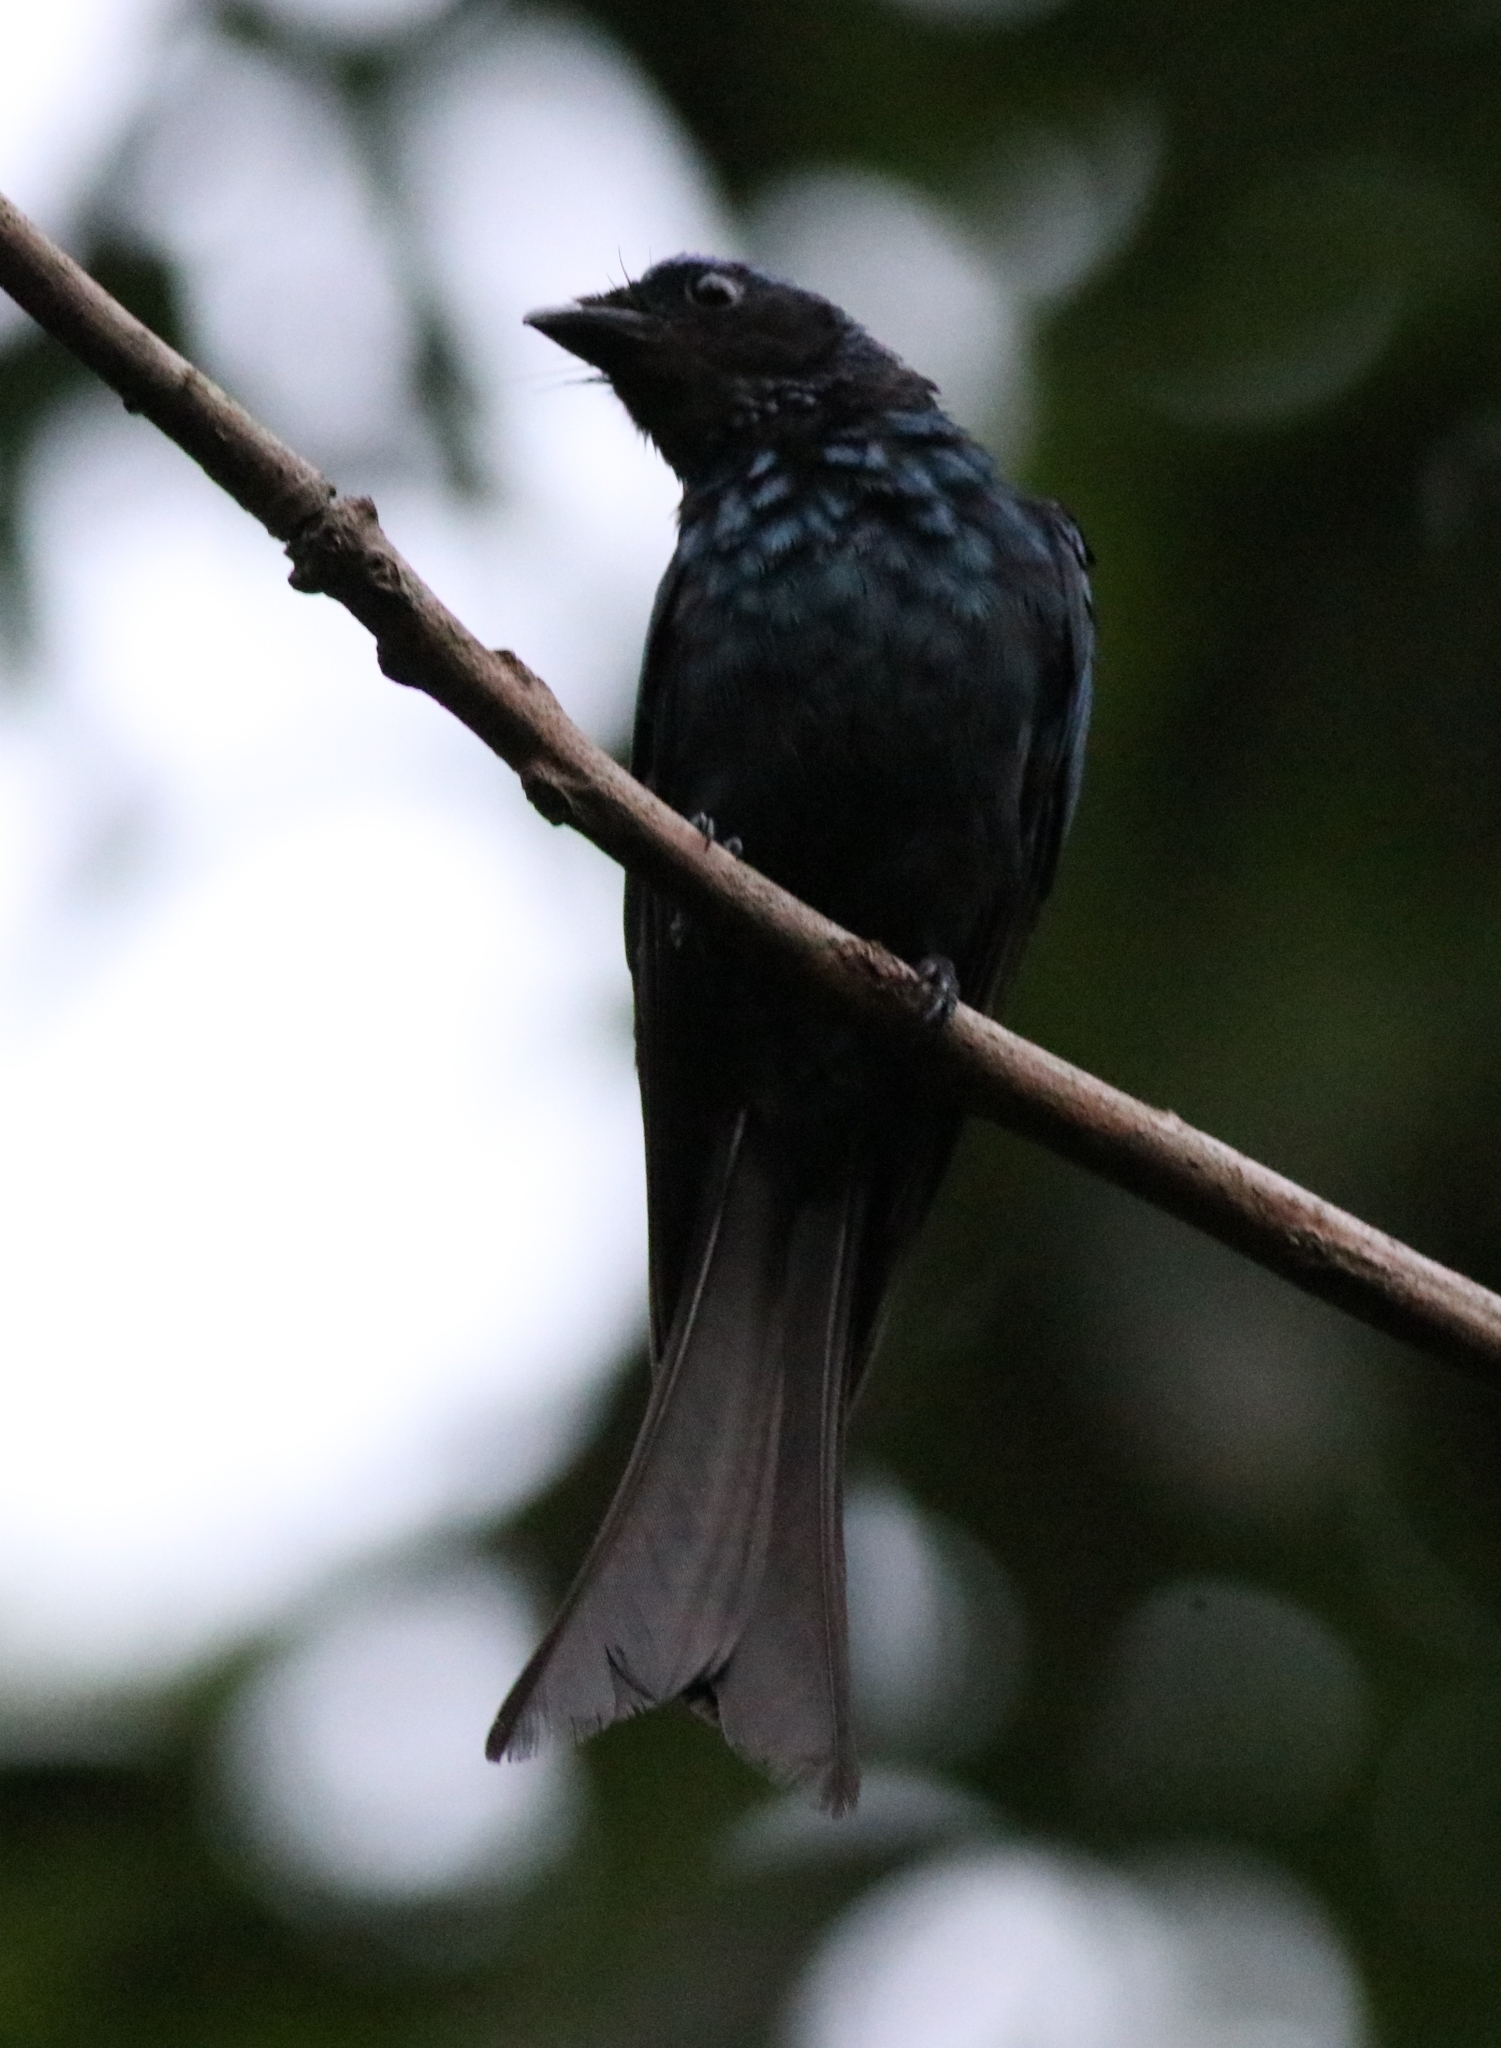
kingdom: Animalia
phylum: Chordata
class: Aves
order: Passeriformes
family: Dicruridae
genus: Dicrurus
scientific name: Dicrurus aeneus
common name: Bronzed drongo
